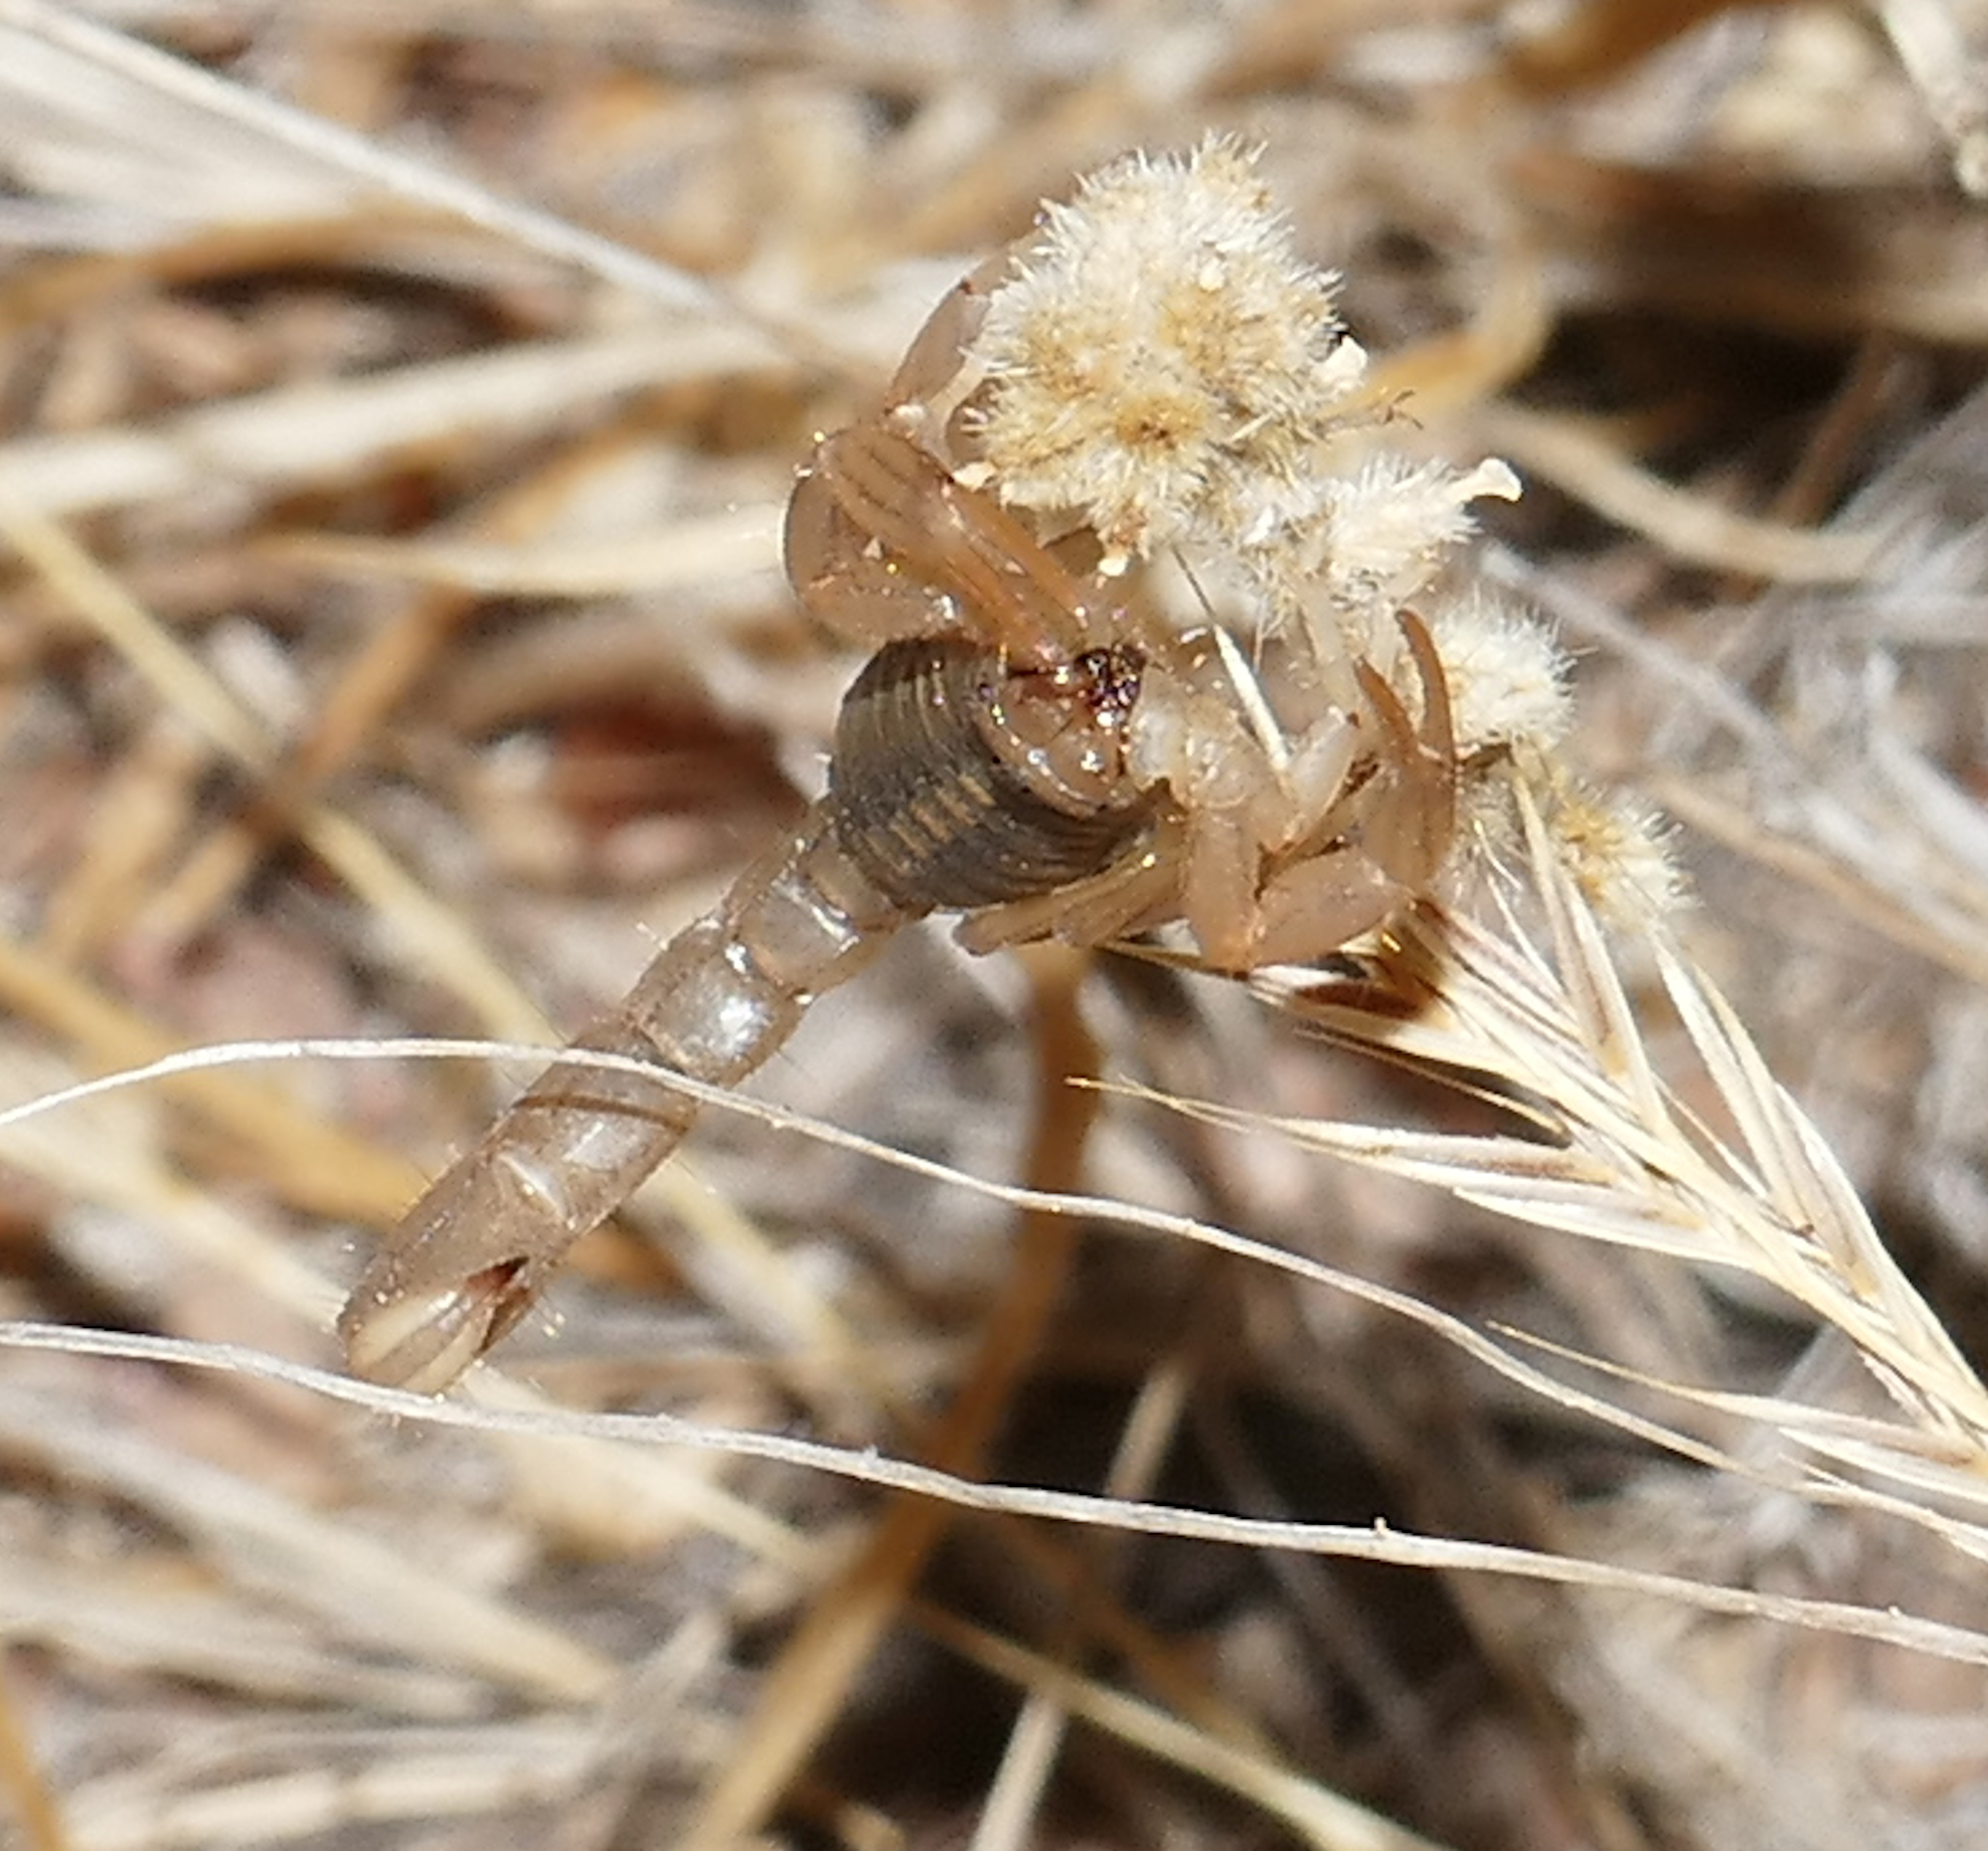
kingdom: Animalia
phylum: Arthropoda
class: Arachnida
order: Scorpiones
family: Vaejovidae
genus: Paravaejovis
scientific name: Paravaejovis spinigerus
